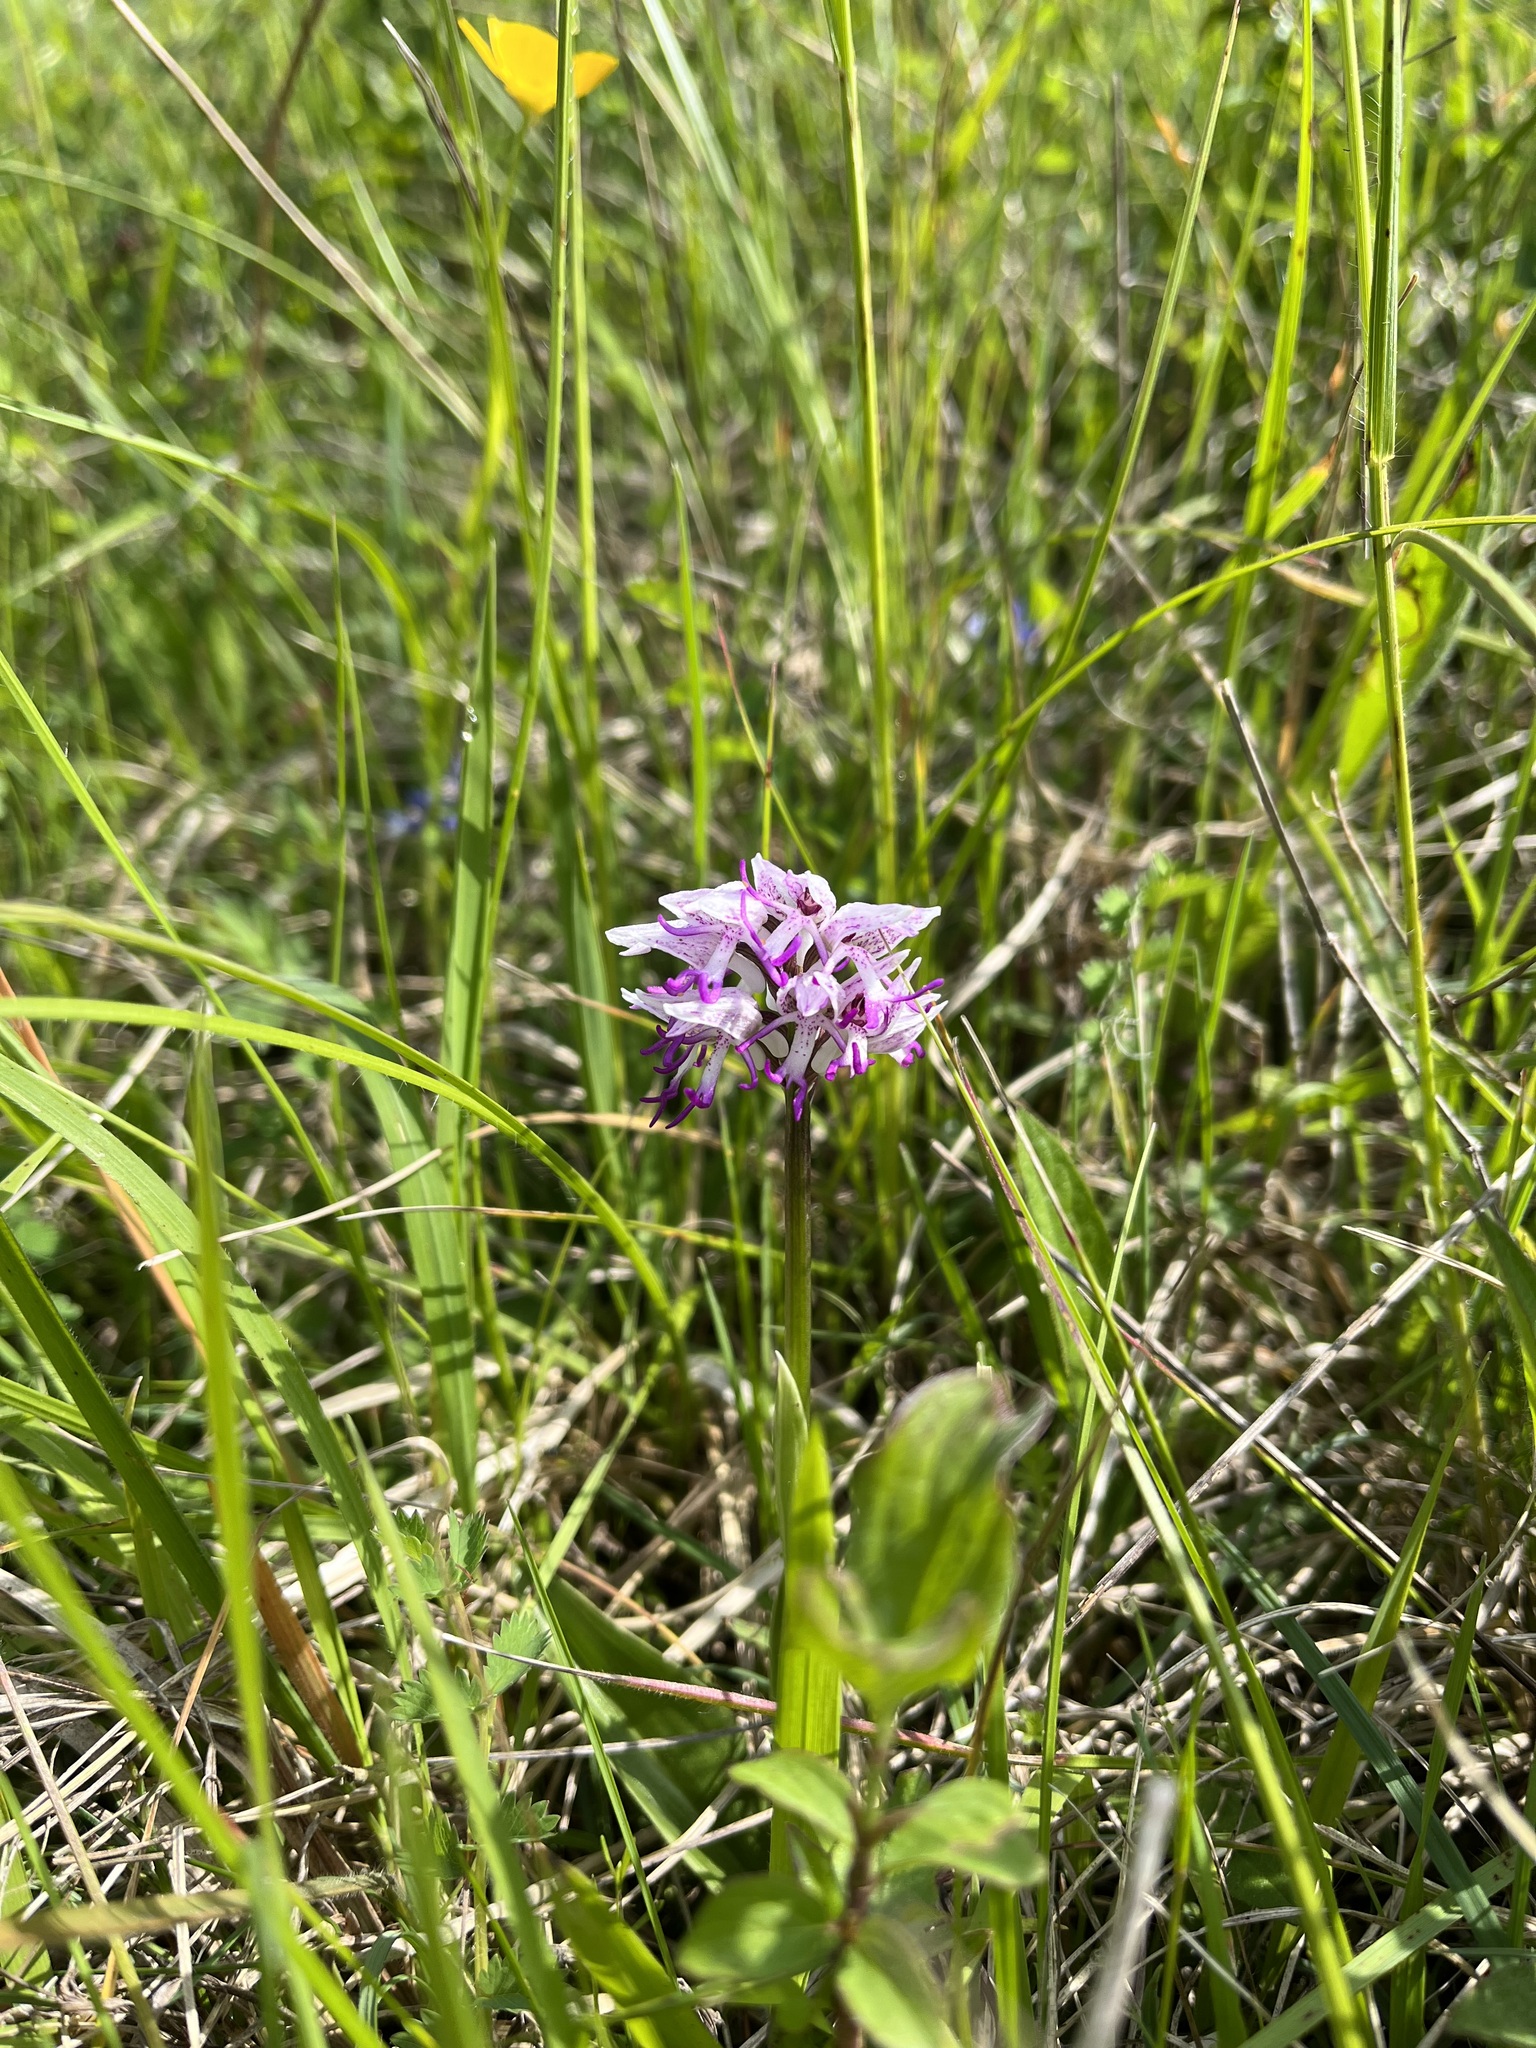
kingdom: Plantae
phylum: Tracheophyta
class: Liliopsida
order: Asparagales
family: Orchidaceae
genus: Orchis
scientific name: Orchis simia
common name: Monkey orchid
